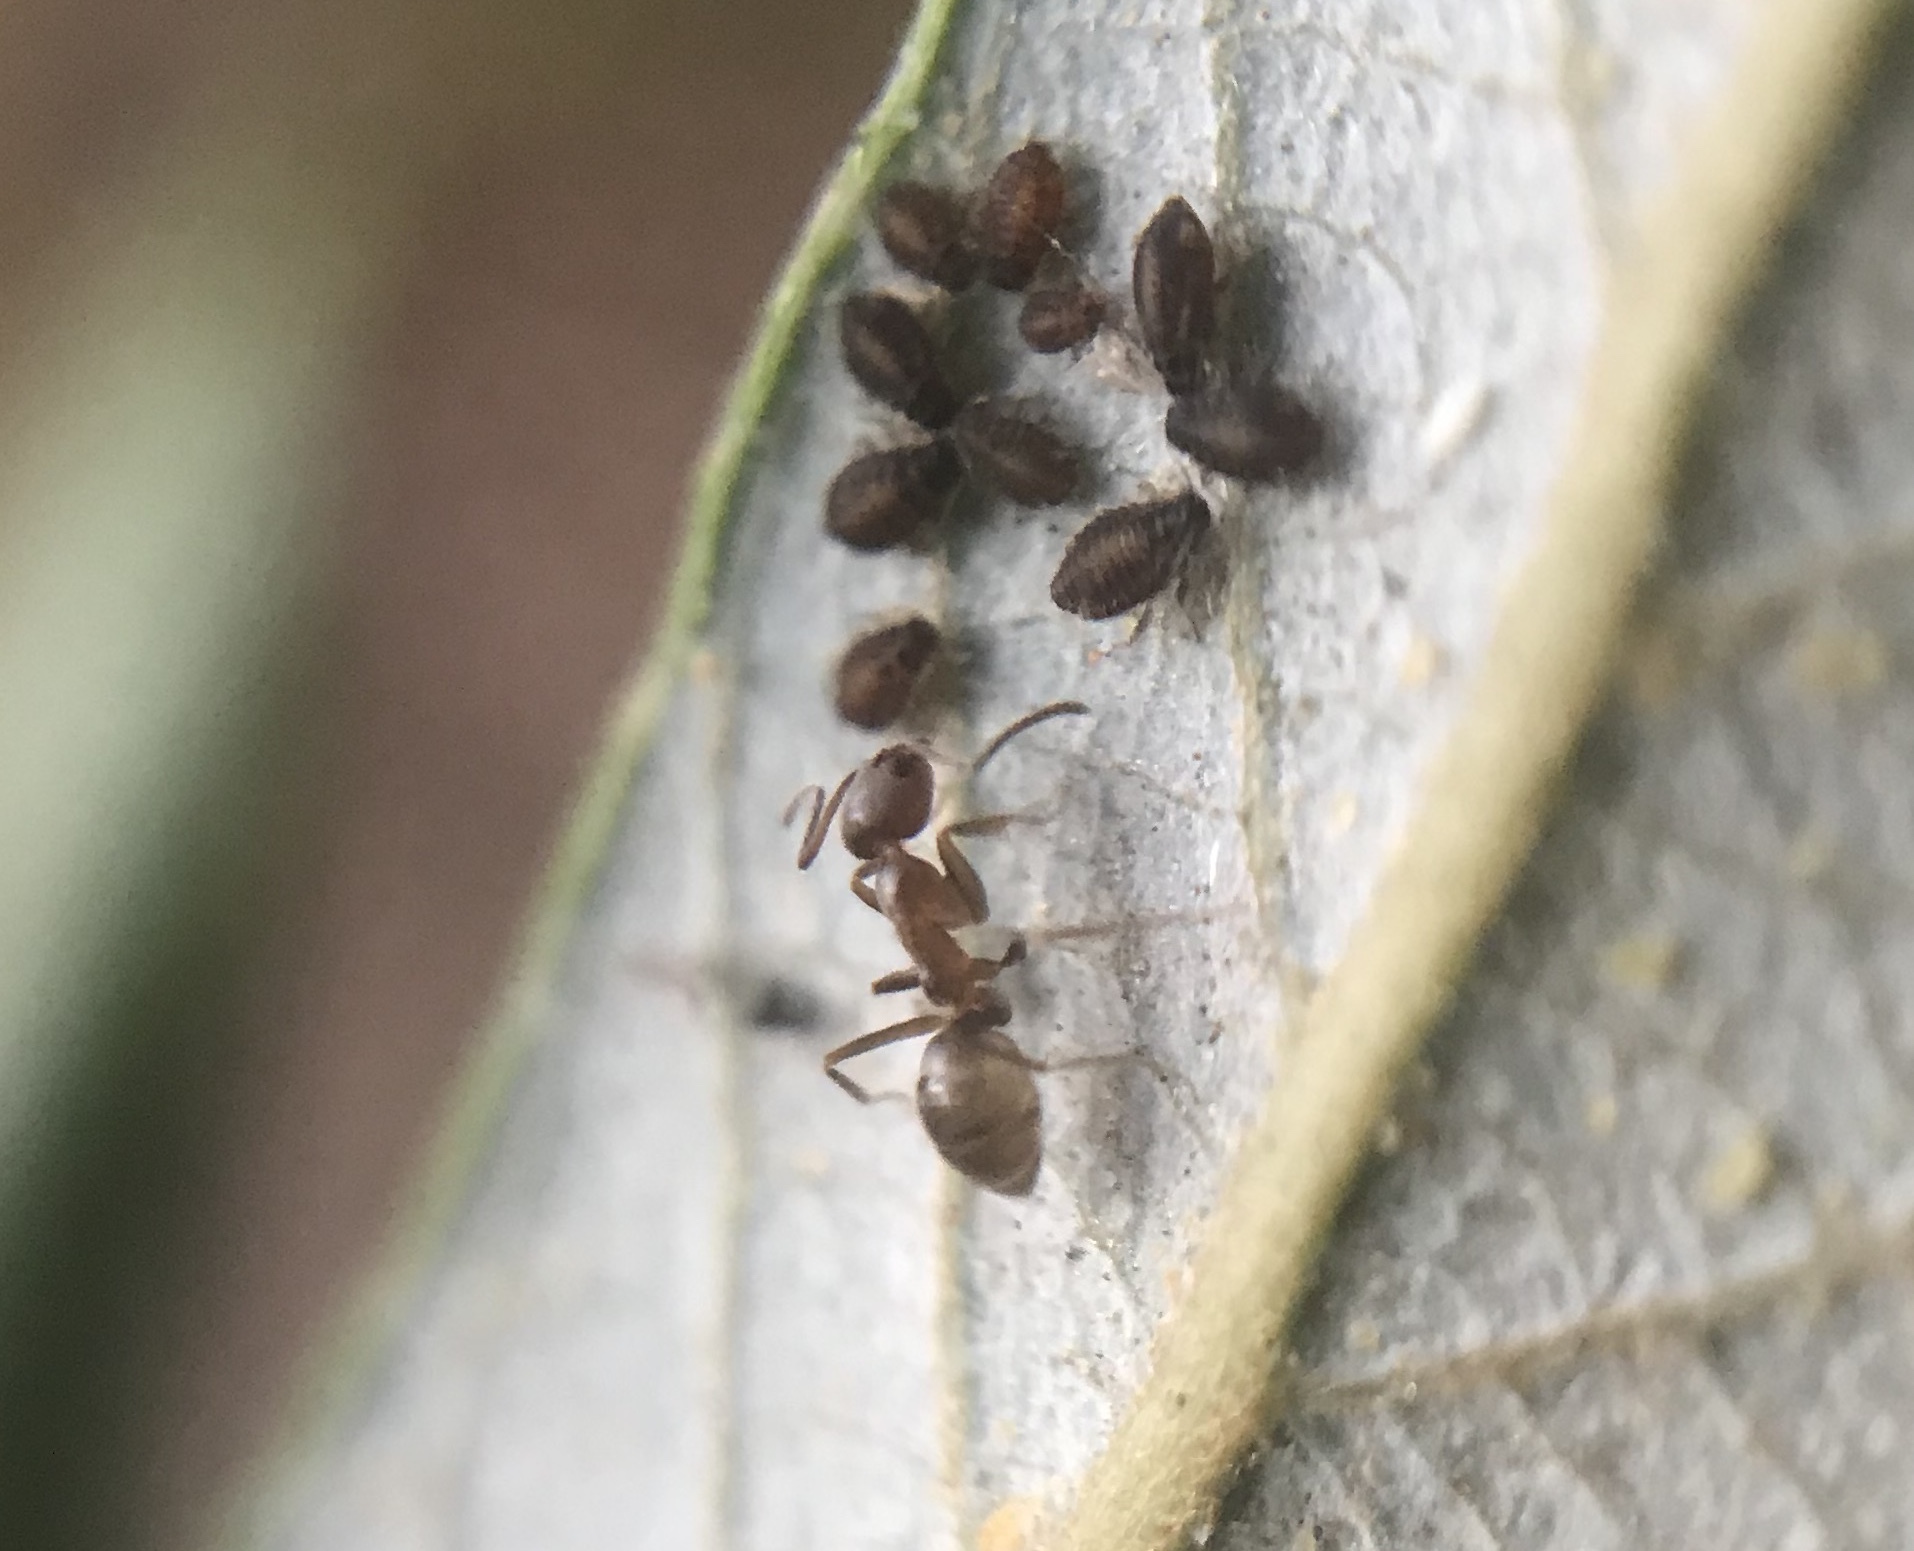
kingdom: Animalia
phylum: Arthropoda
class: Insecta
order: Hymenoptera
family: Formicidae
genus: Linepithema
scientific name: Linepithema humile
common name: Argentine ant
